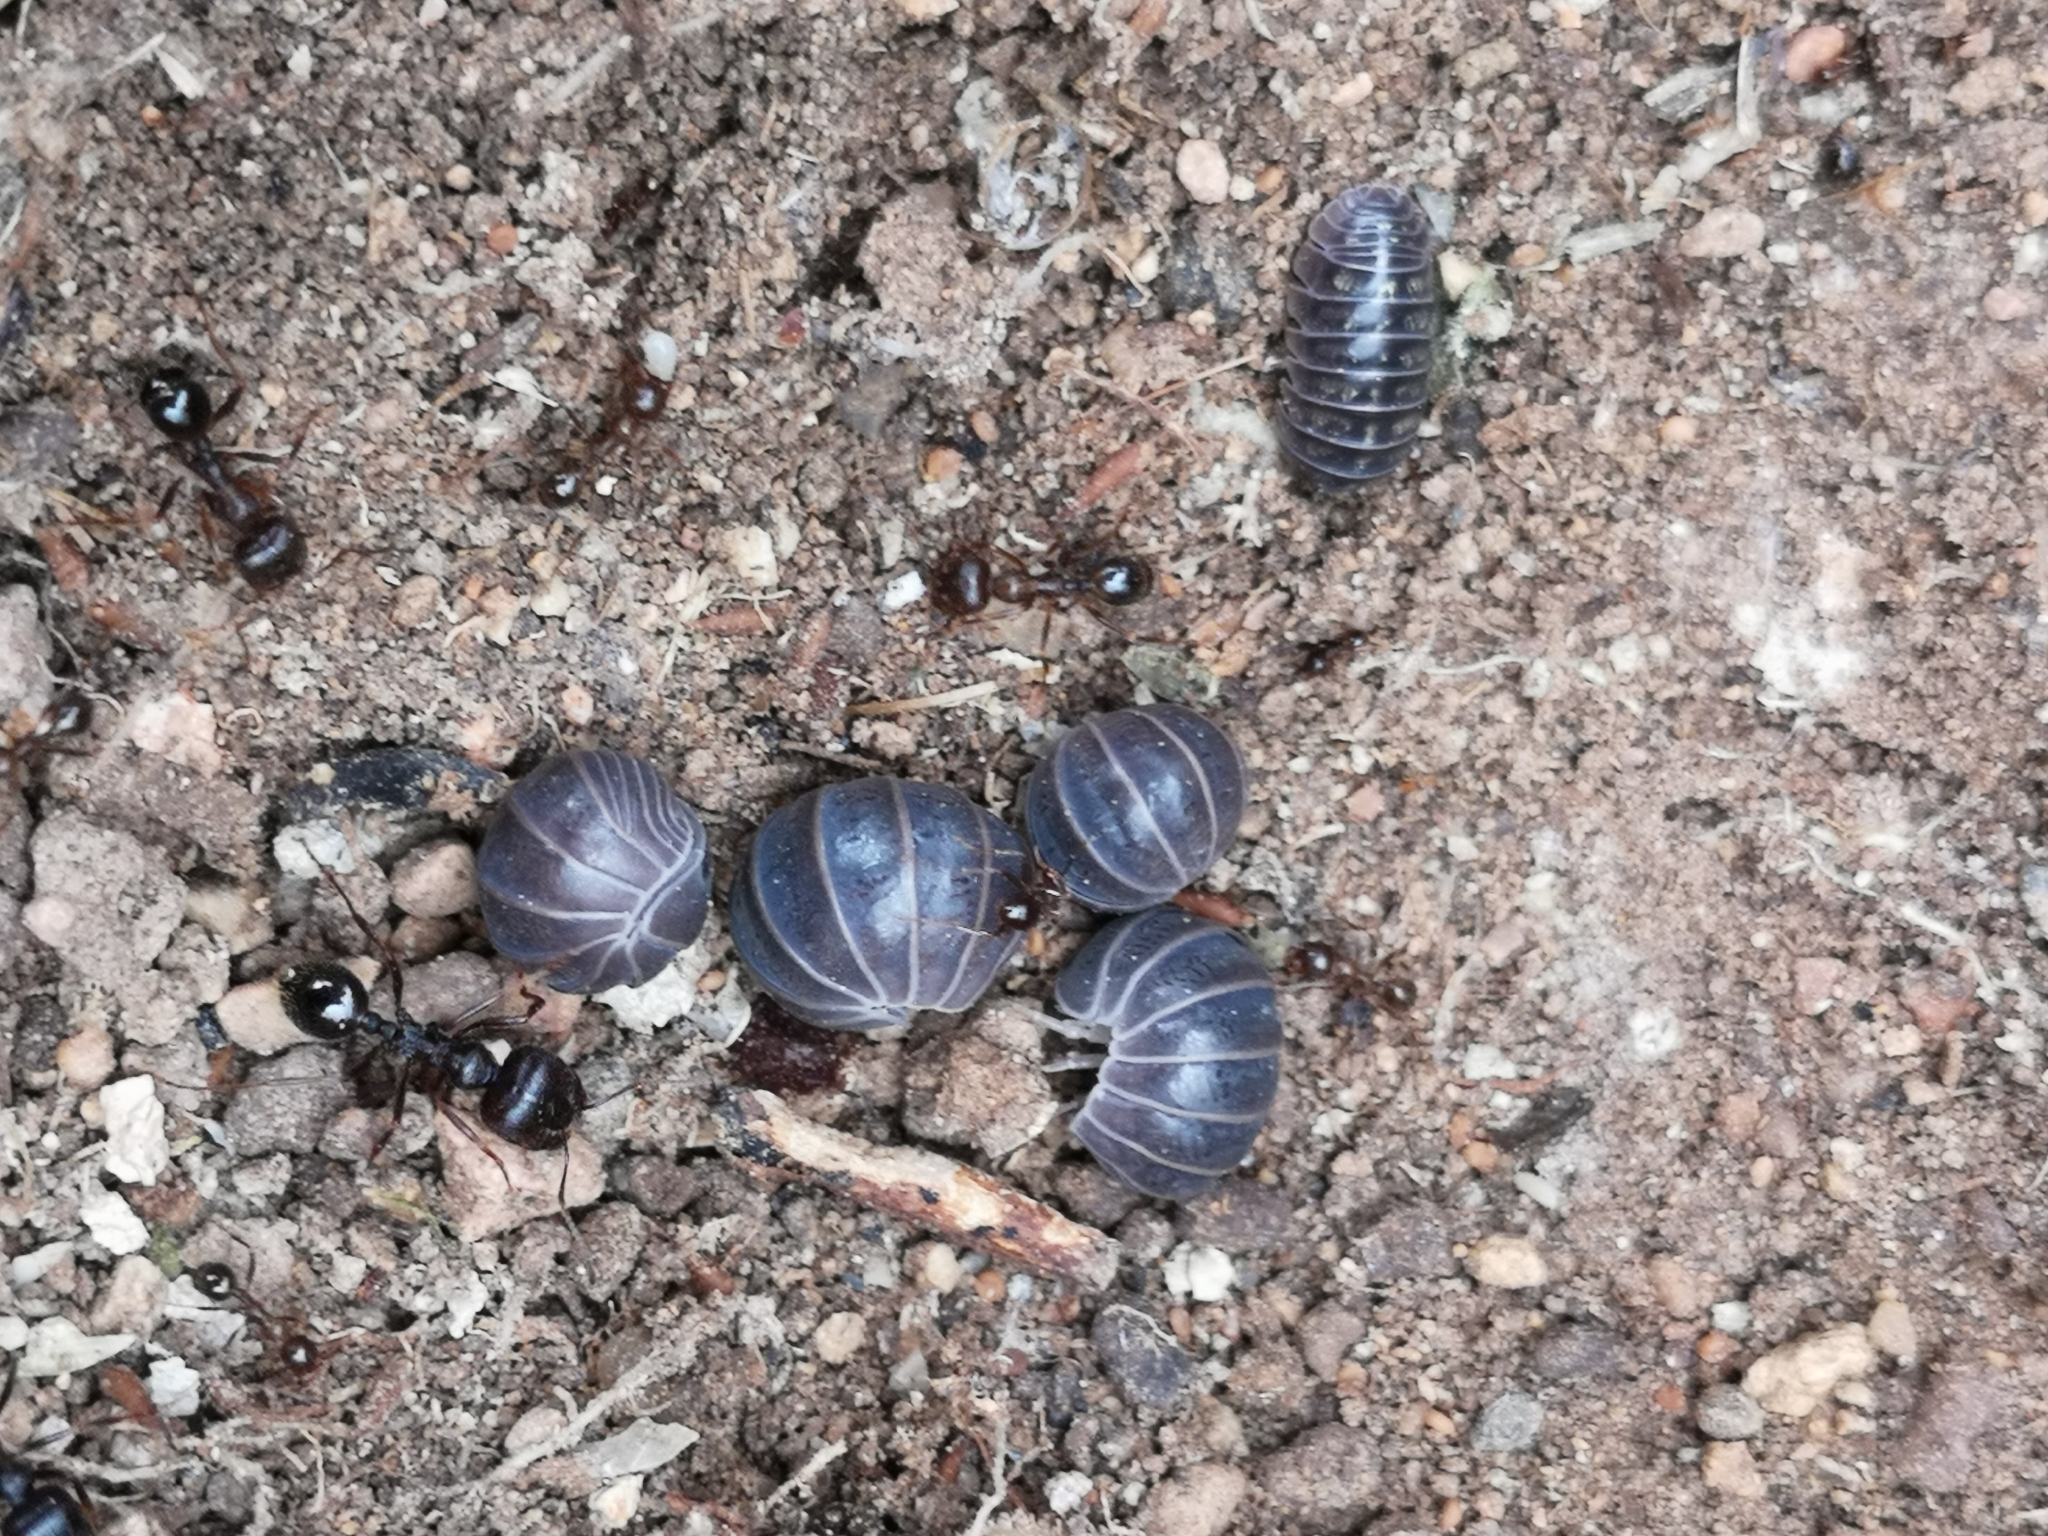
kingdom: Animalia
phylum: Arthropoda
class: Malacostraca
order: Isopoda
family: Armadillidae
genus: Armadillo
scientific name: Armadillo officinalis
